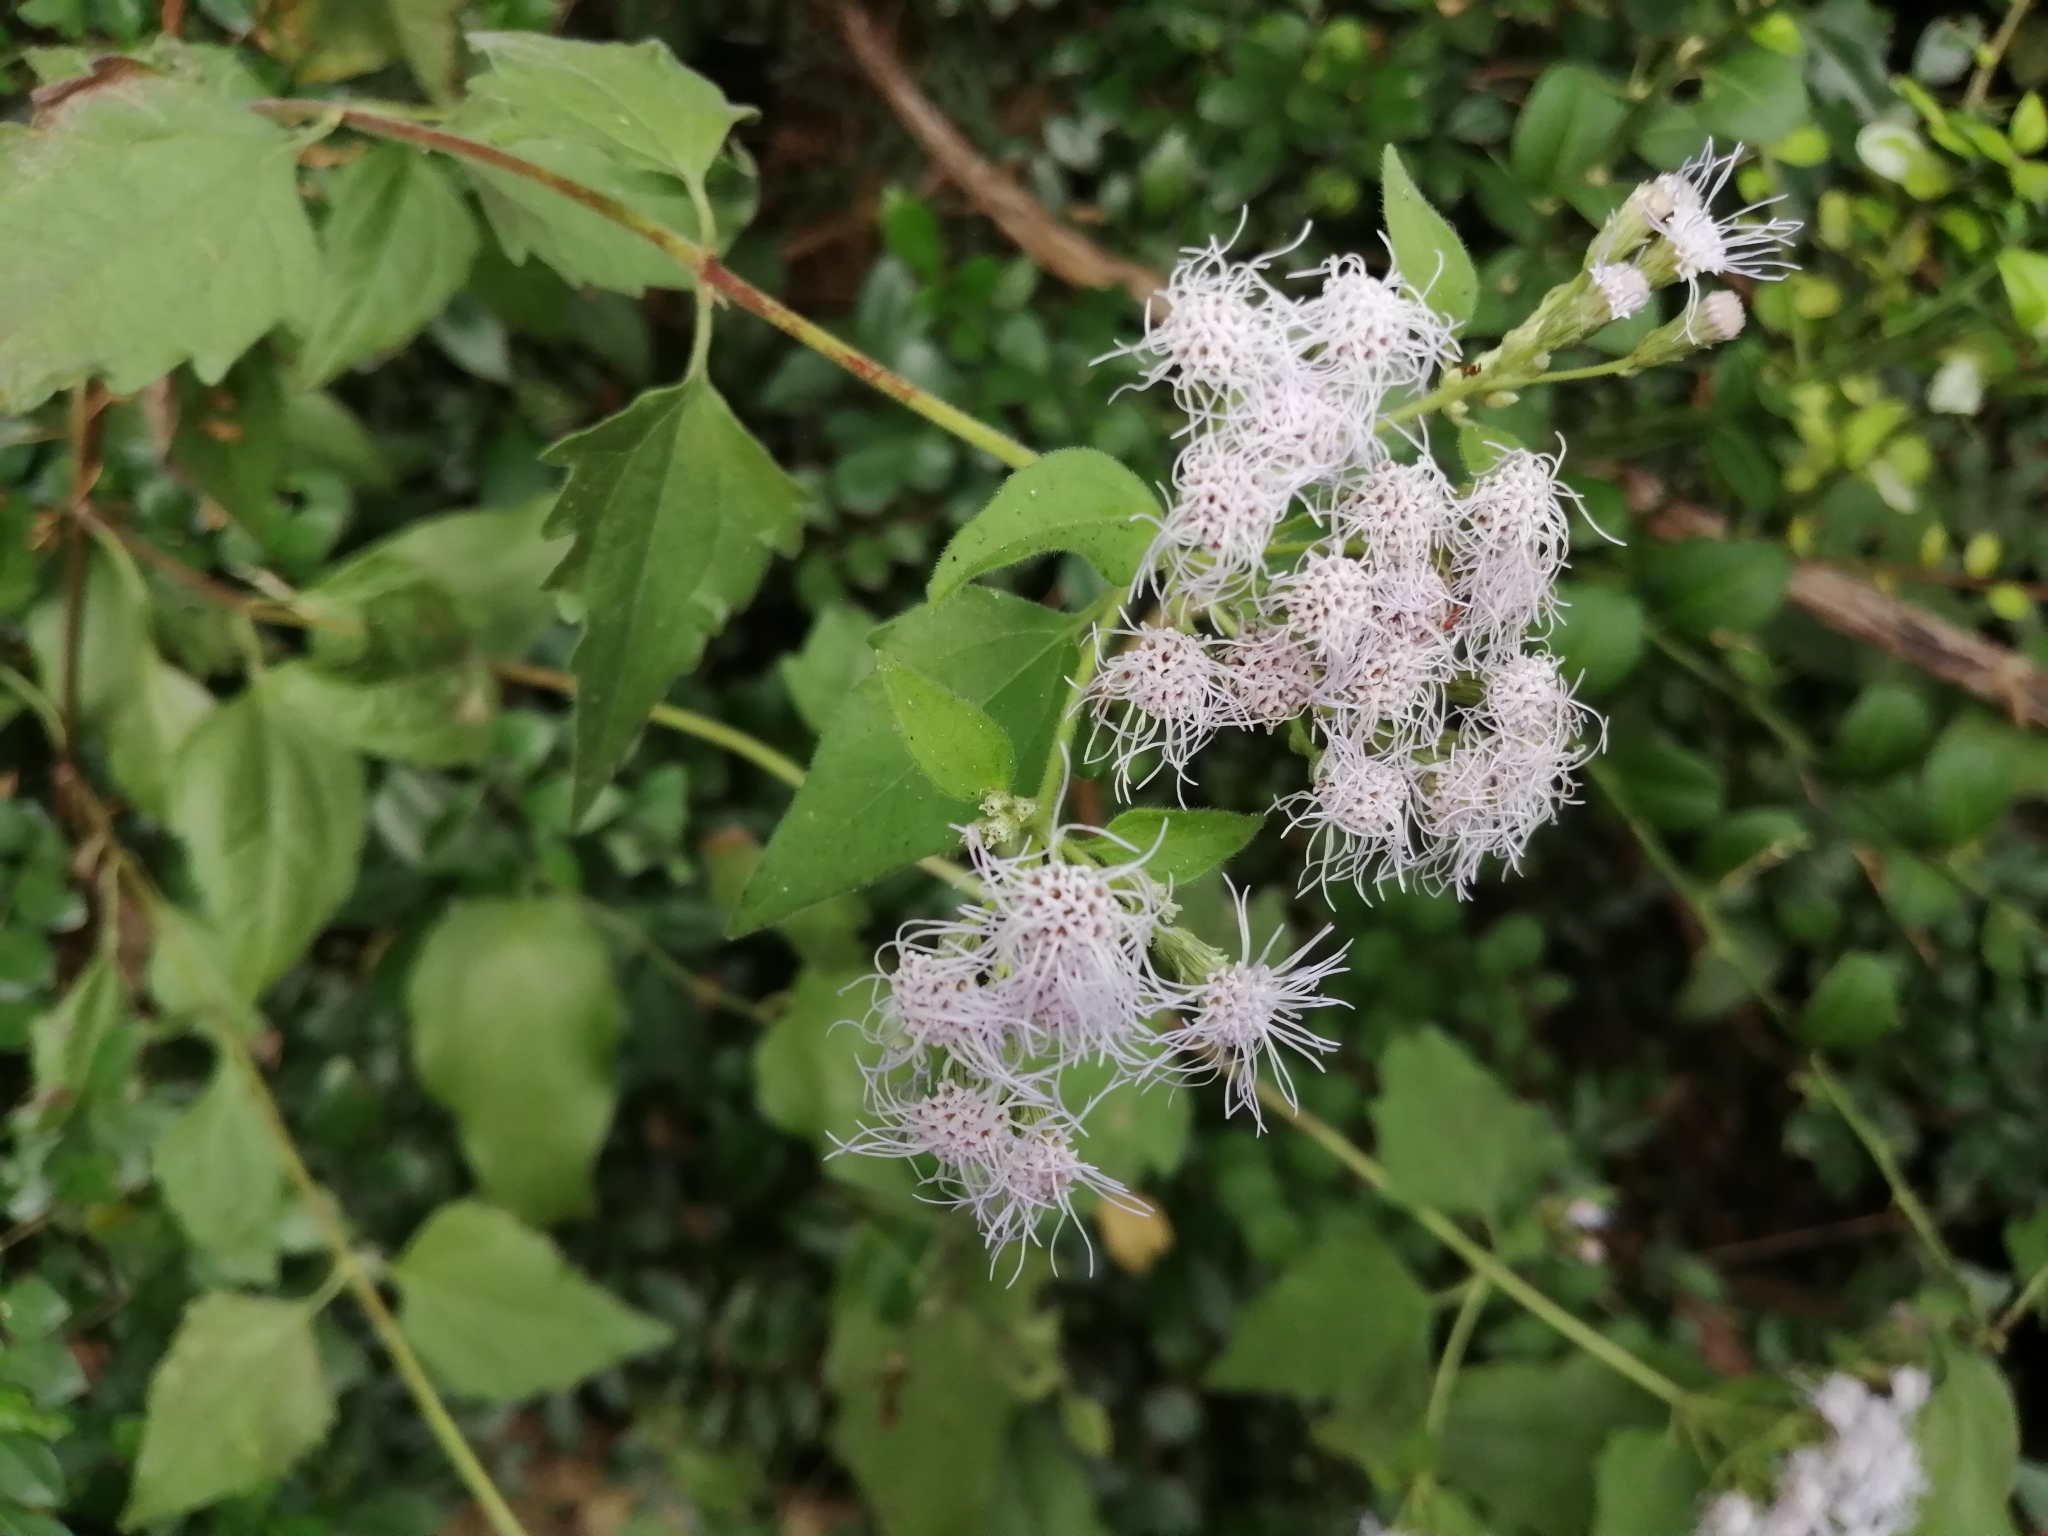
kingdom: Plantae
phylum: Tracheophyta
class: Magnoliopsida
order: Asterales
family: Asteraceae
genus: Chromolaena
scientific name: Chromolaena odorata
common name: Siamweed
